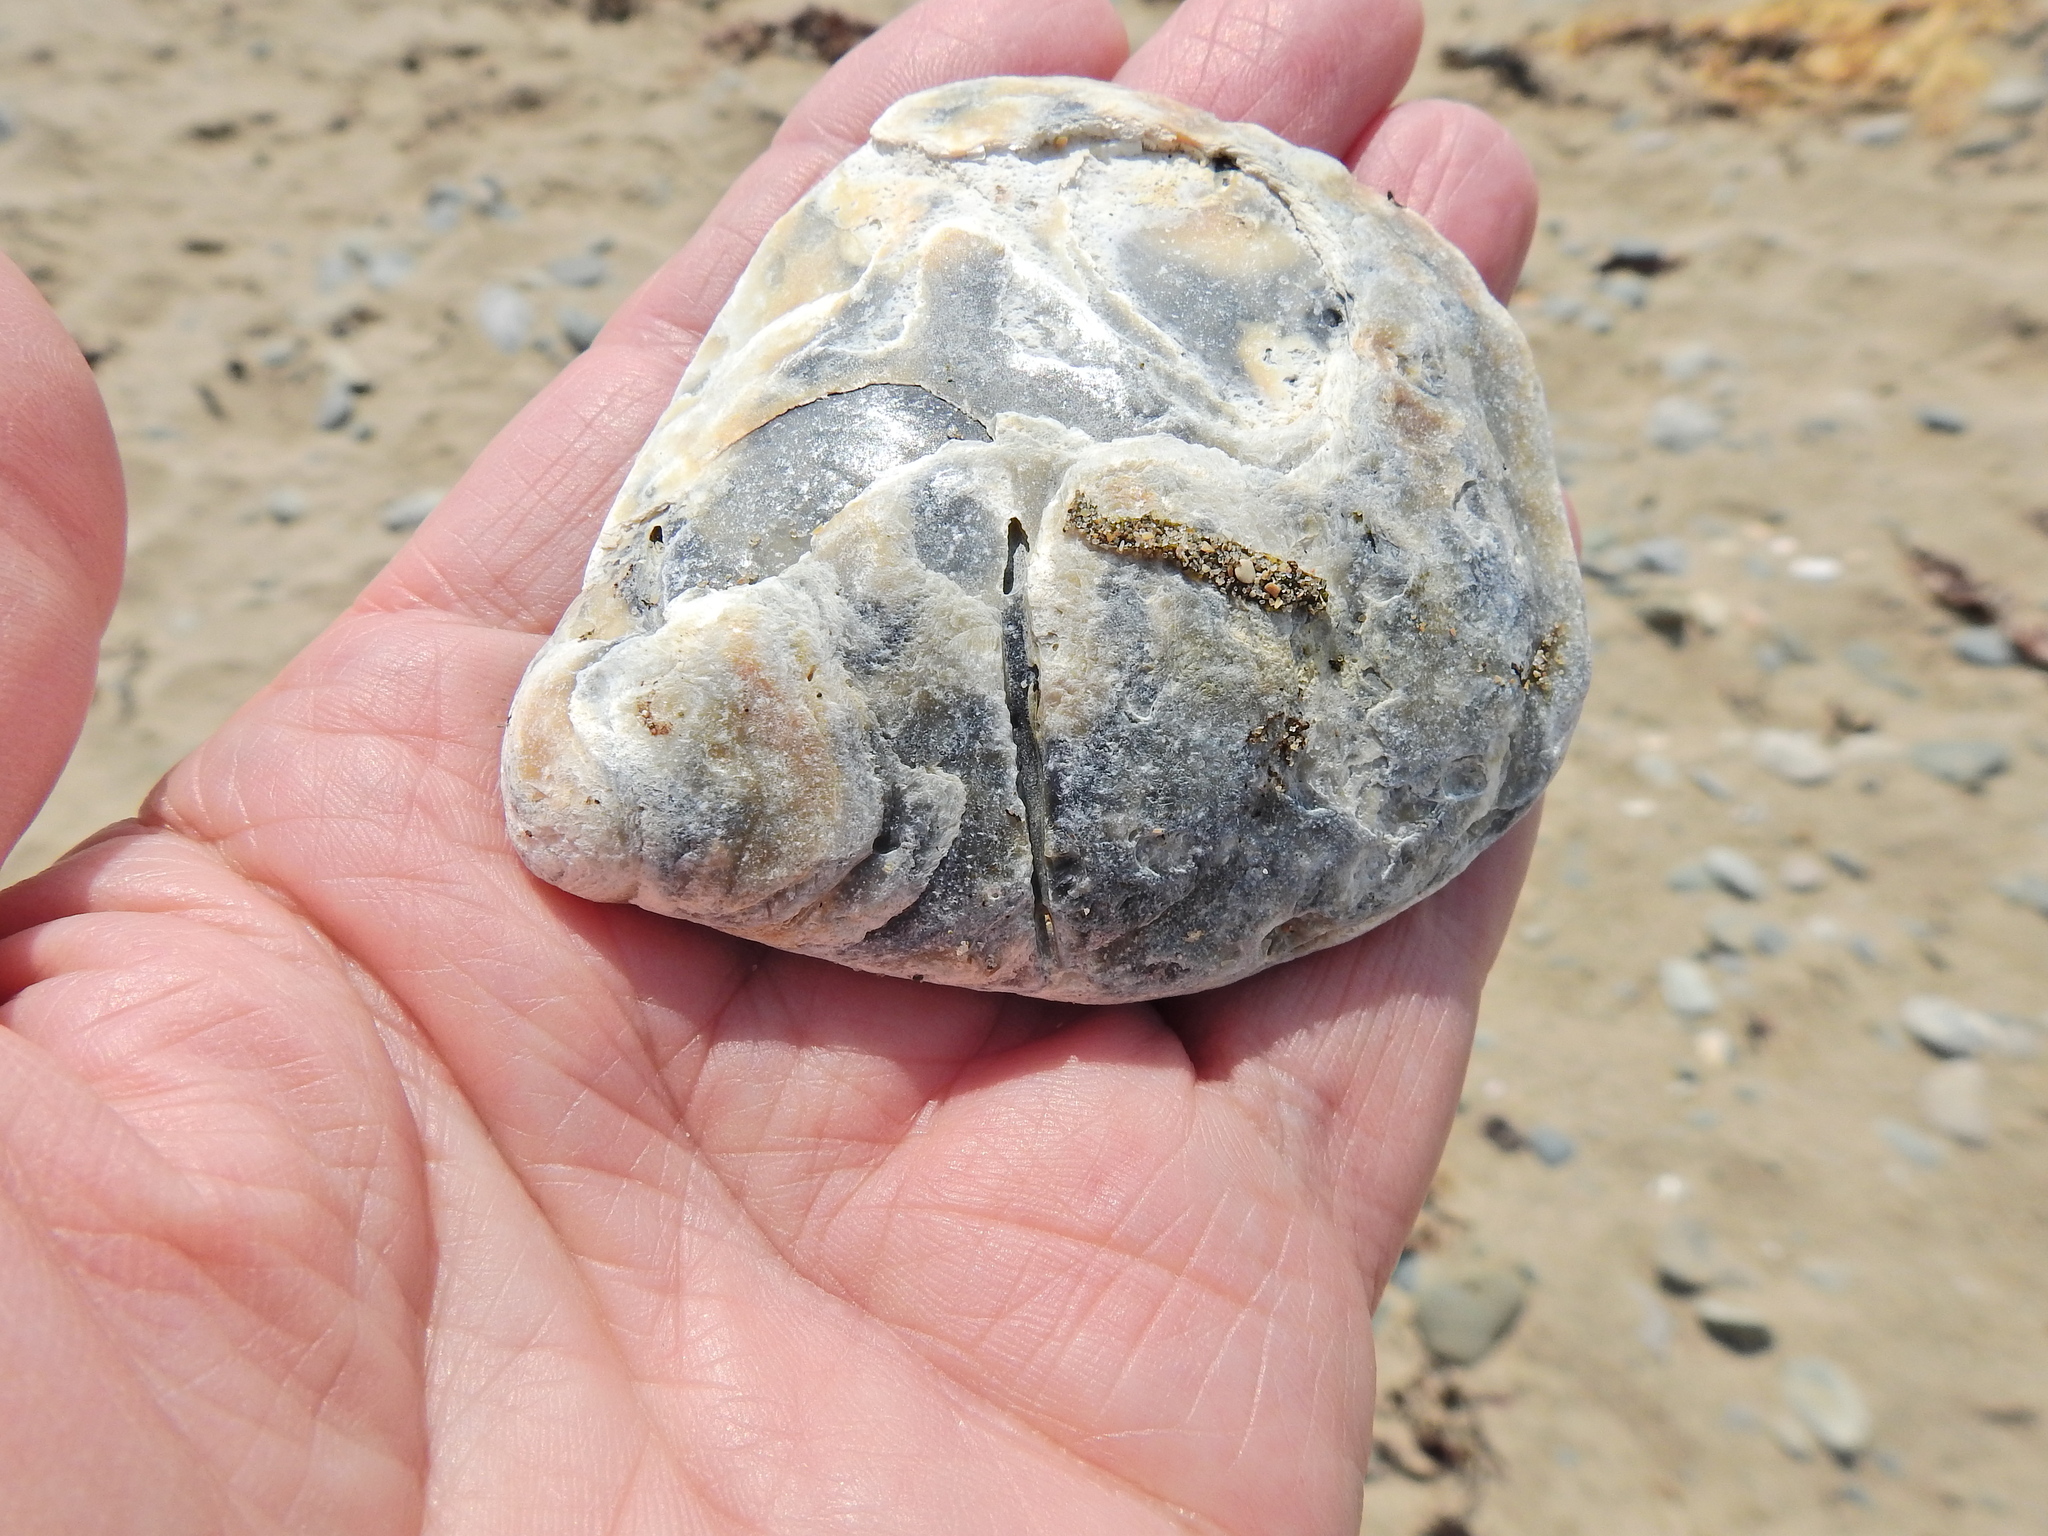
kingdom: Animalia
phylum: Mollusca
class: Bivalvia
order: Ostreida
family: Ostreidae
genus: Ostrea
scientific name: Ostrea edulis
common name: Flat oyster
